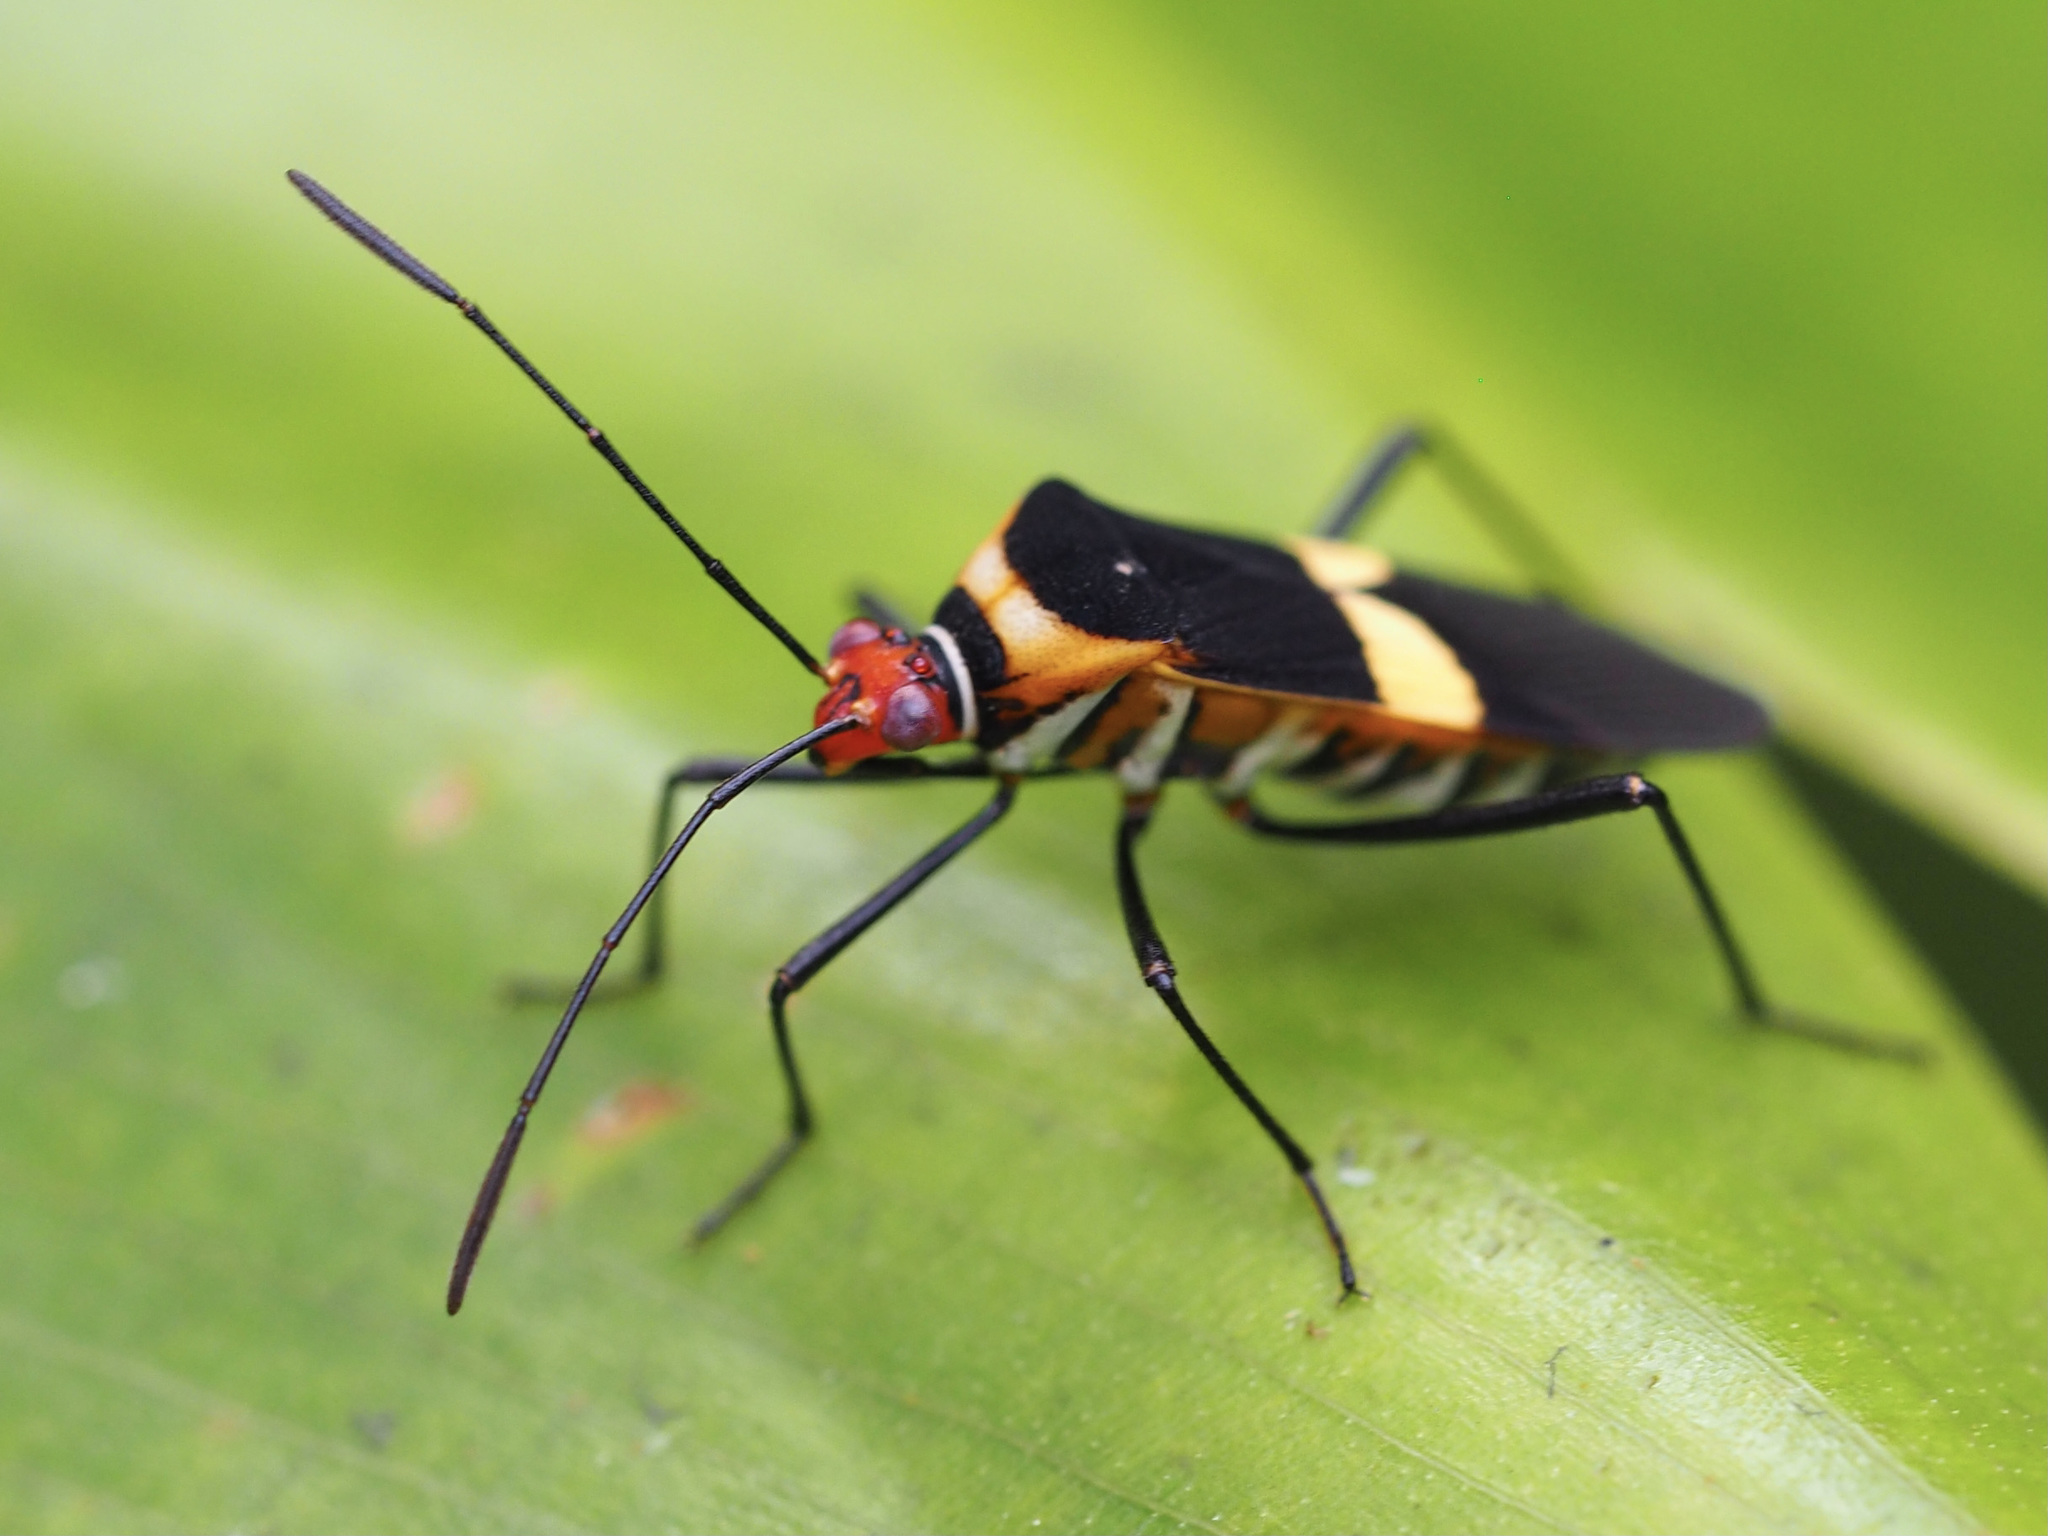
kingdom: Animalia
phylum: Arthropoda
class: Insecta
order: Hemiptera
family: Coreidae
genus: Hypselonotus
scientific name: Hypselonotus interruptus
